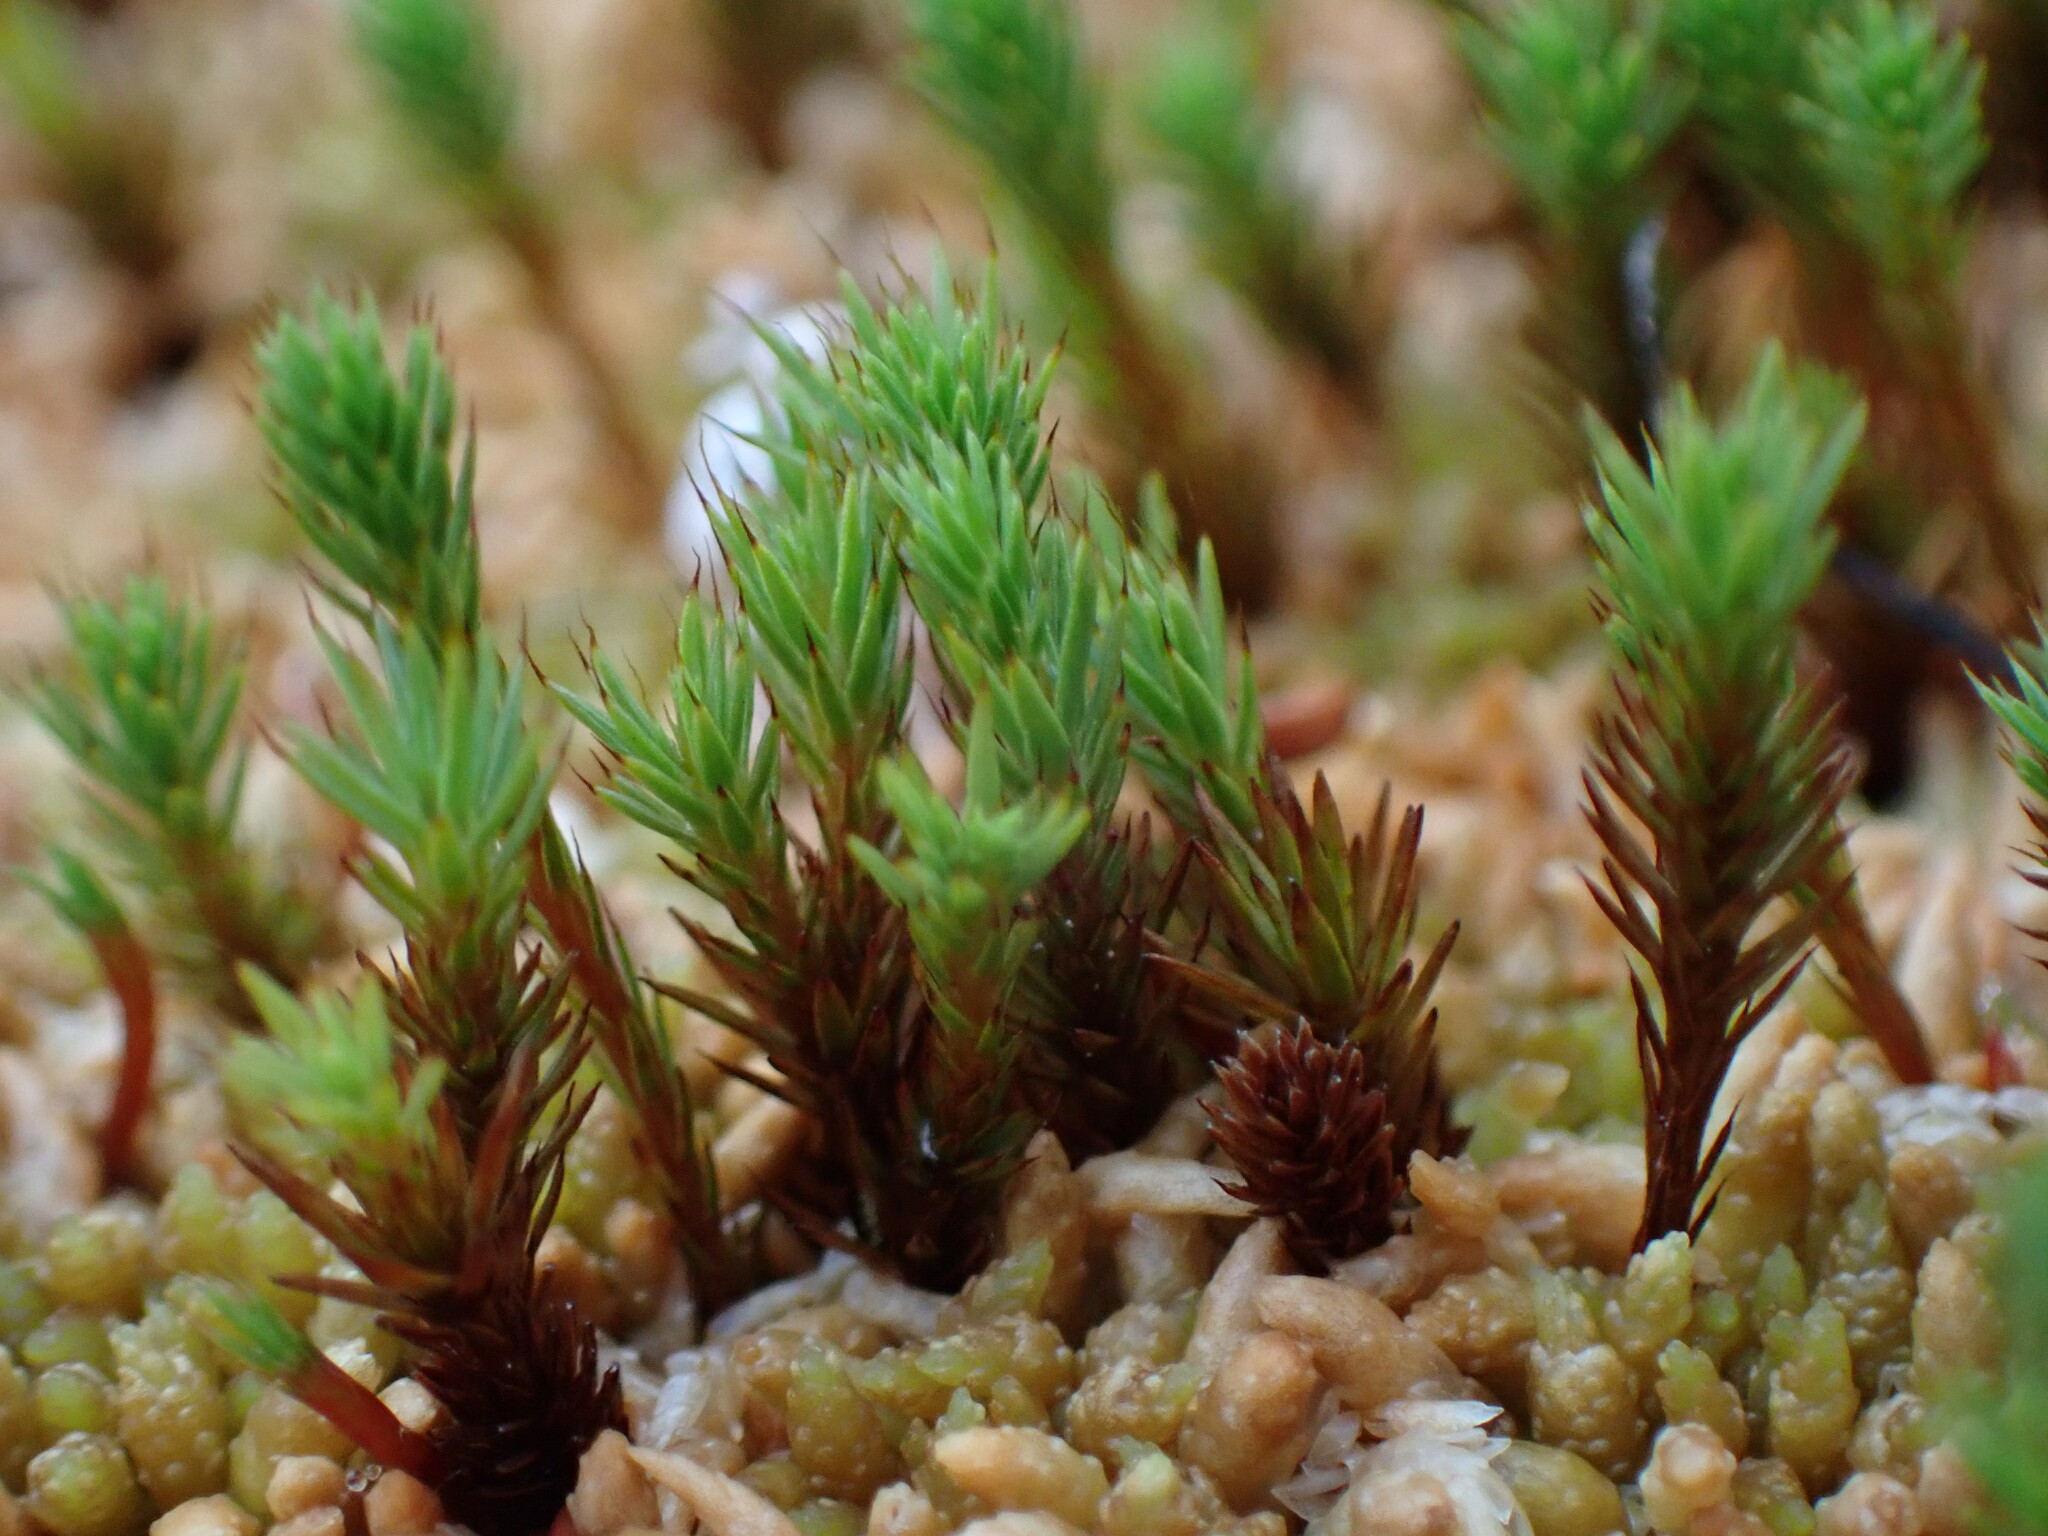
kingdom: Plantae
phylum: Bryophyta
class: Polytrichopsida
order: Polytrichales
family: Polytrichaceae
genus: Polytrichum
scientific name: Polytrichum strictum
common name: Bog haircap moss
